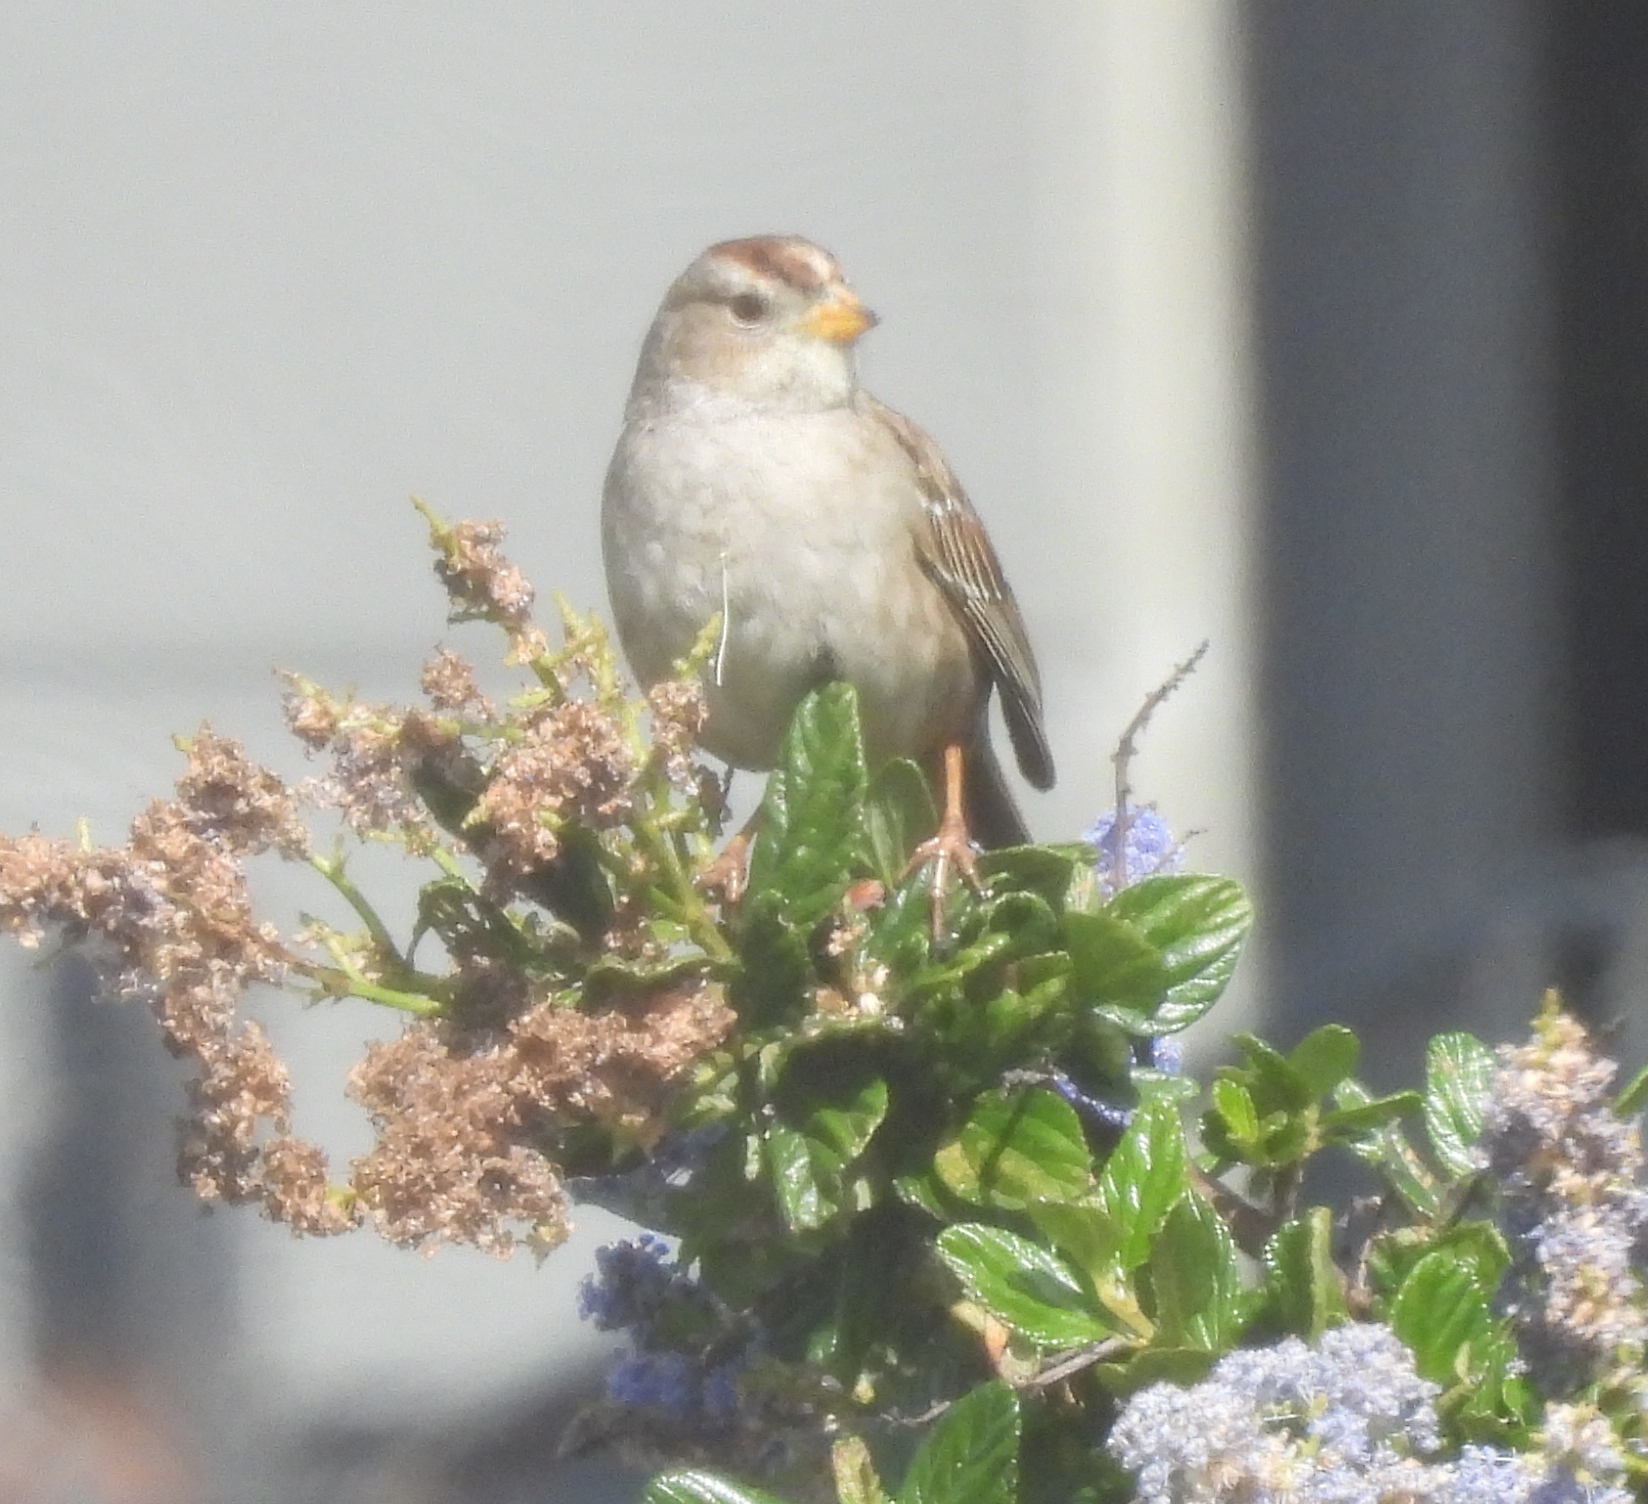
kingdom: Animalia
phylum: Chordata
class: Aves
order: Passeriformes
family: Passerellidae
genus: Zonotrichia
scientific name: Zonotrichia leucophrys
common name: White-crowned sparrow
